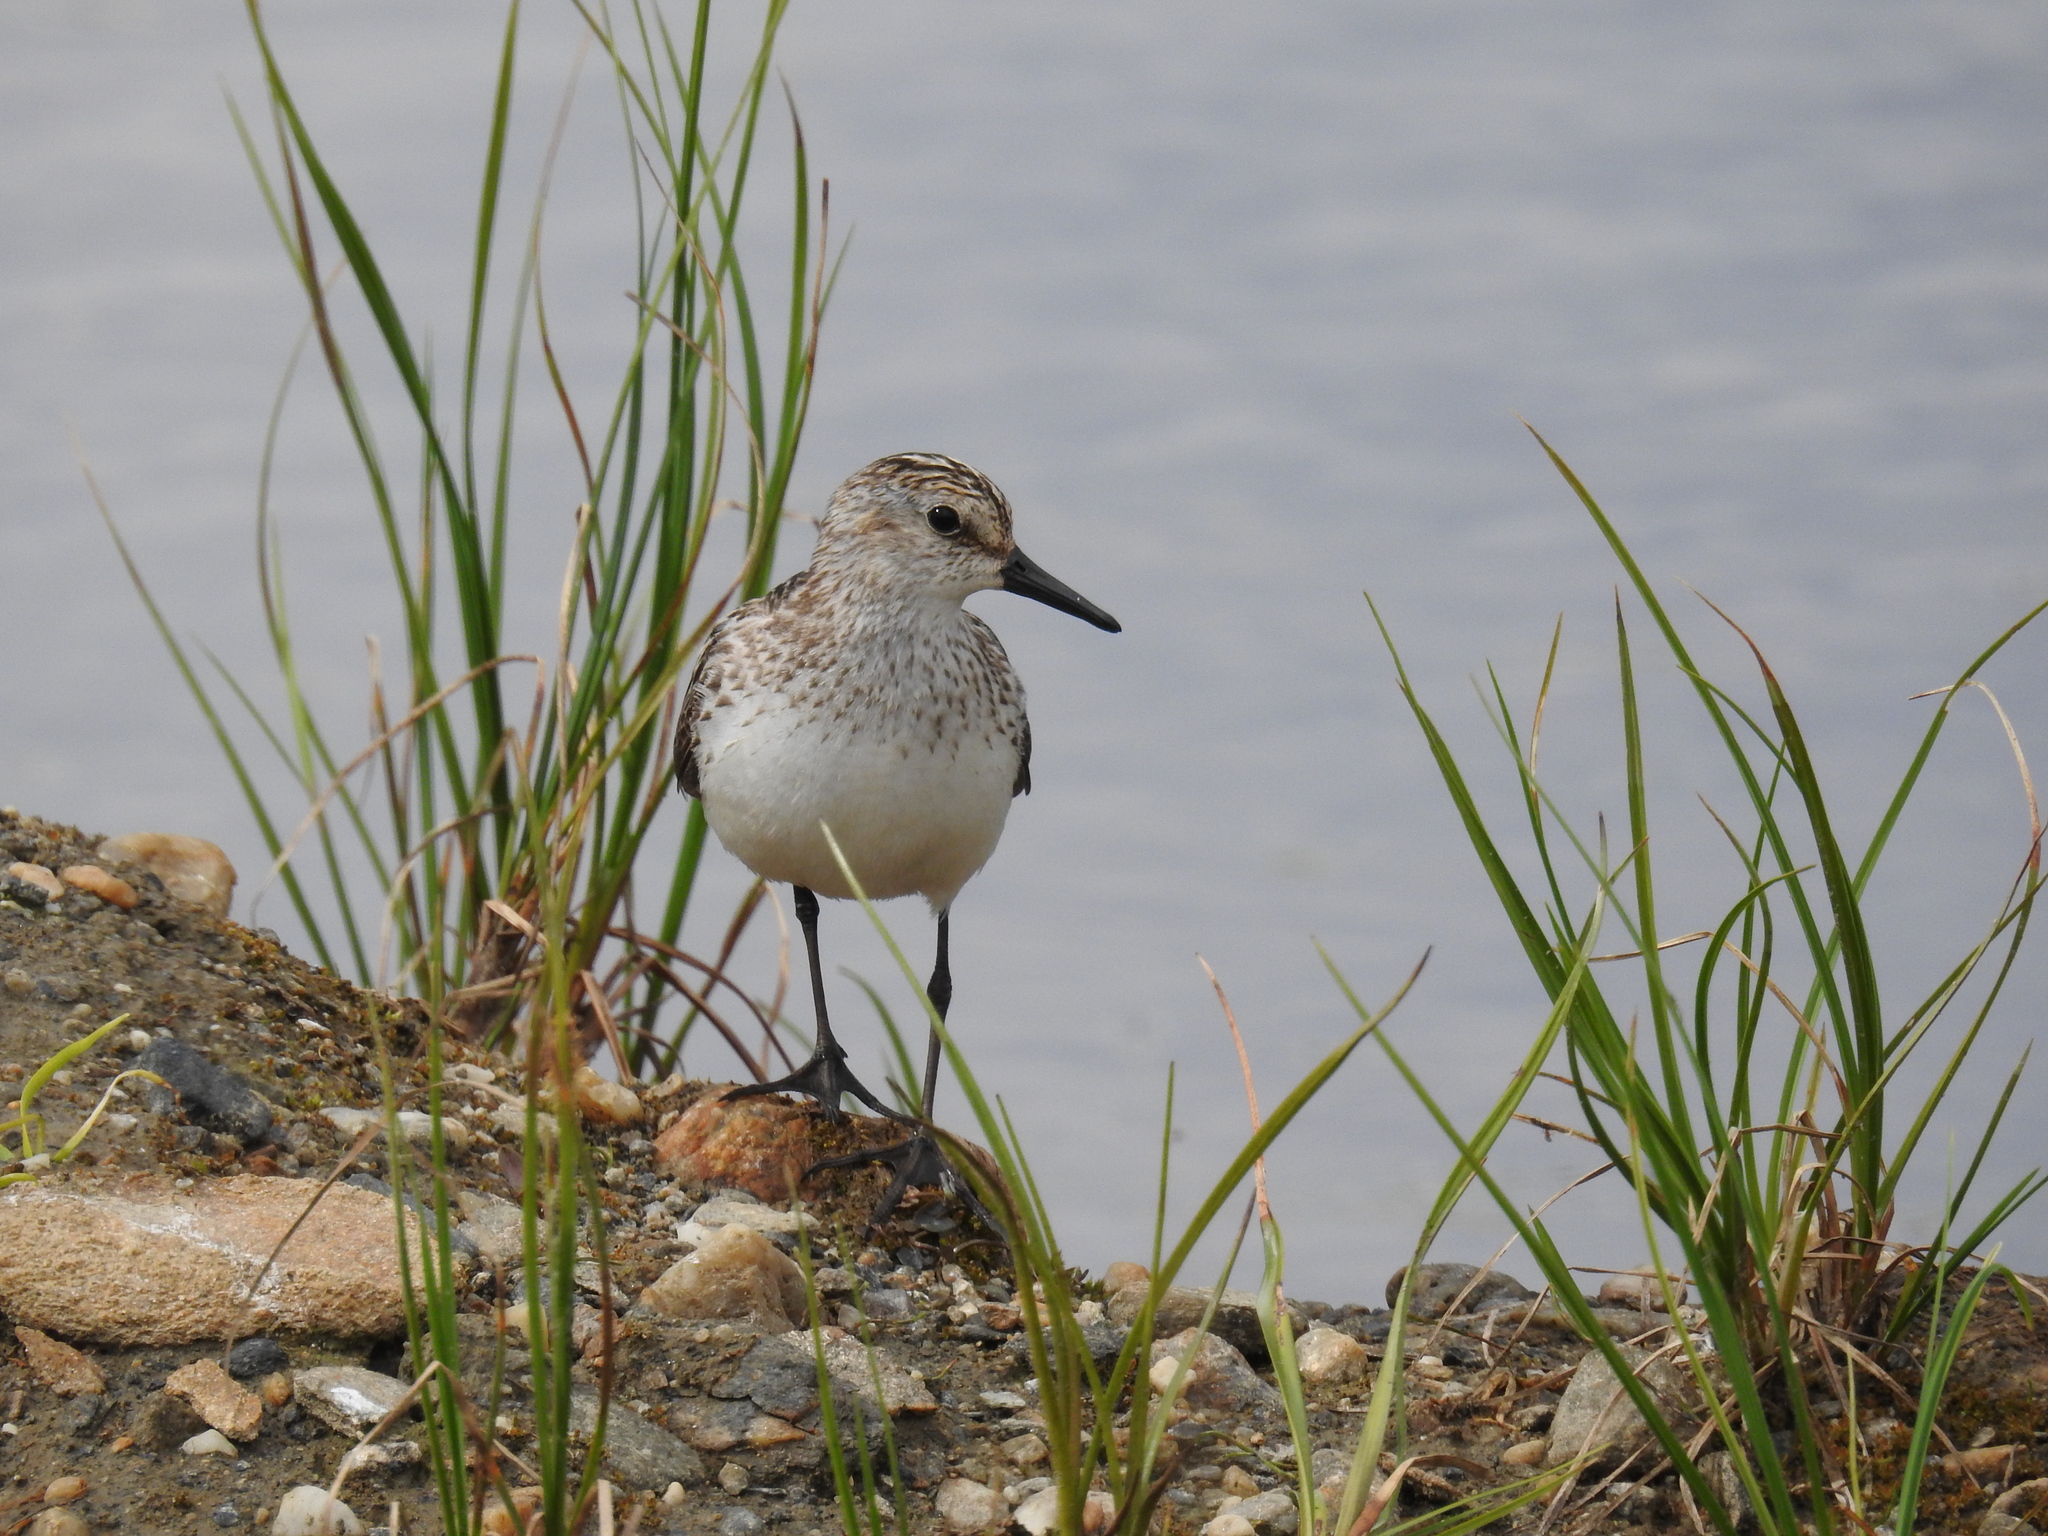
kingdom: Animalia
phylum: Chordata
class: Aves
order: Charadriiformes
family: Scolopacidae
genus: Calidris
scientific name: Calidris pusilla
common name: Semipalmated sandpiper
